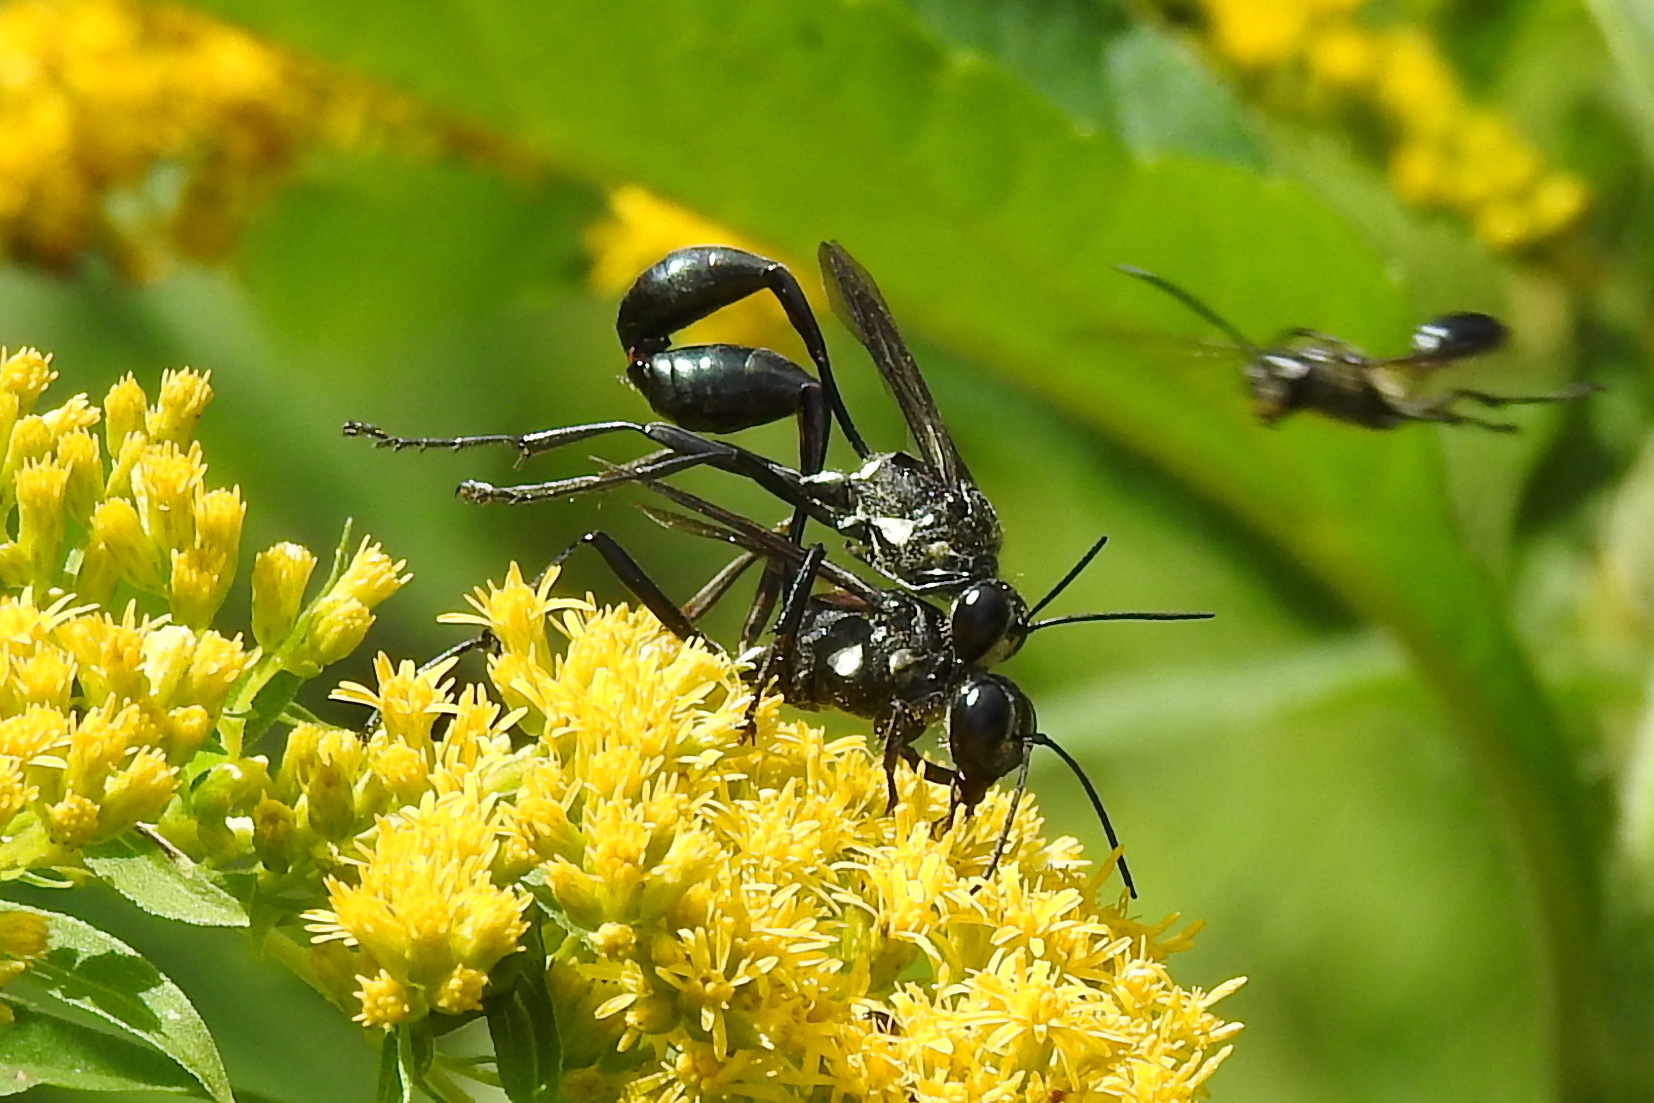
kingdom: Animalia
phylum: Arthropoda
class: Insecta
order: Hymenoptera
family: Sphecidae
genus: Eremnophila
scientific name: Eremnophila aureonotata
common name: Gold-marked thread-waisted wasp
